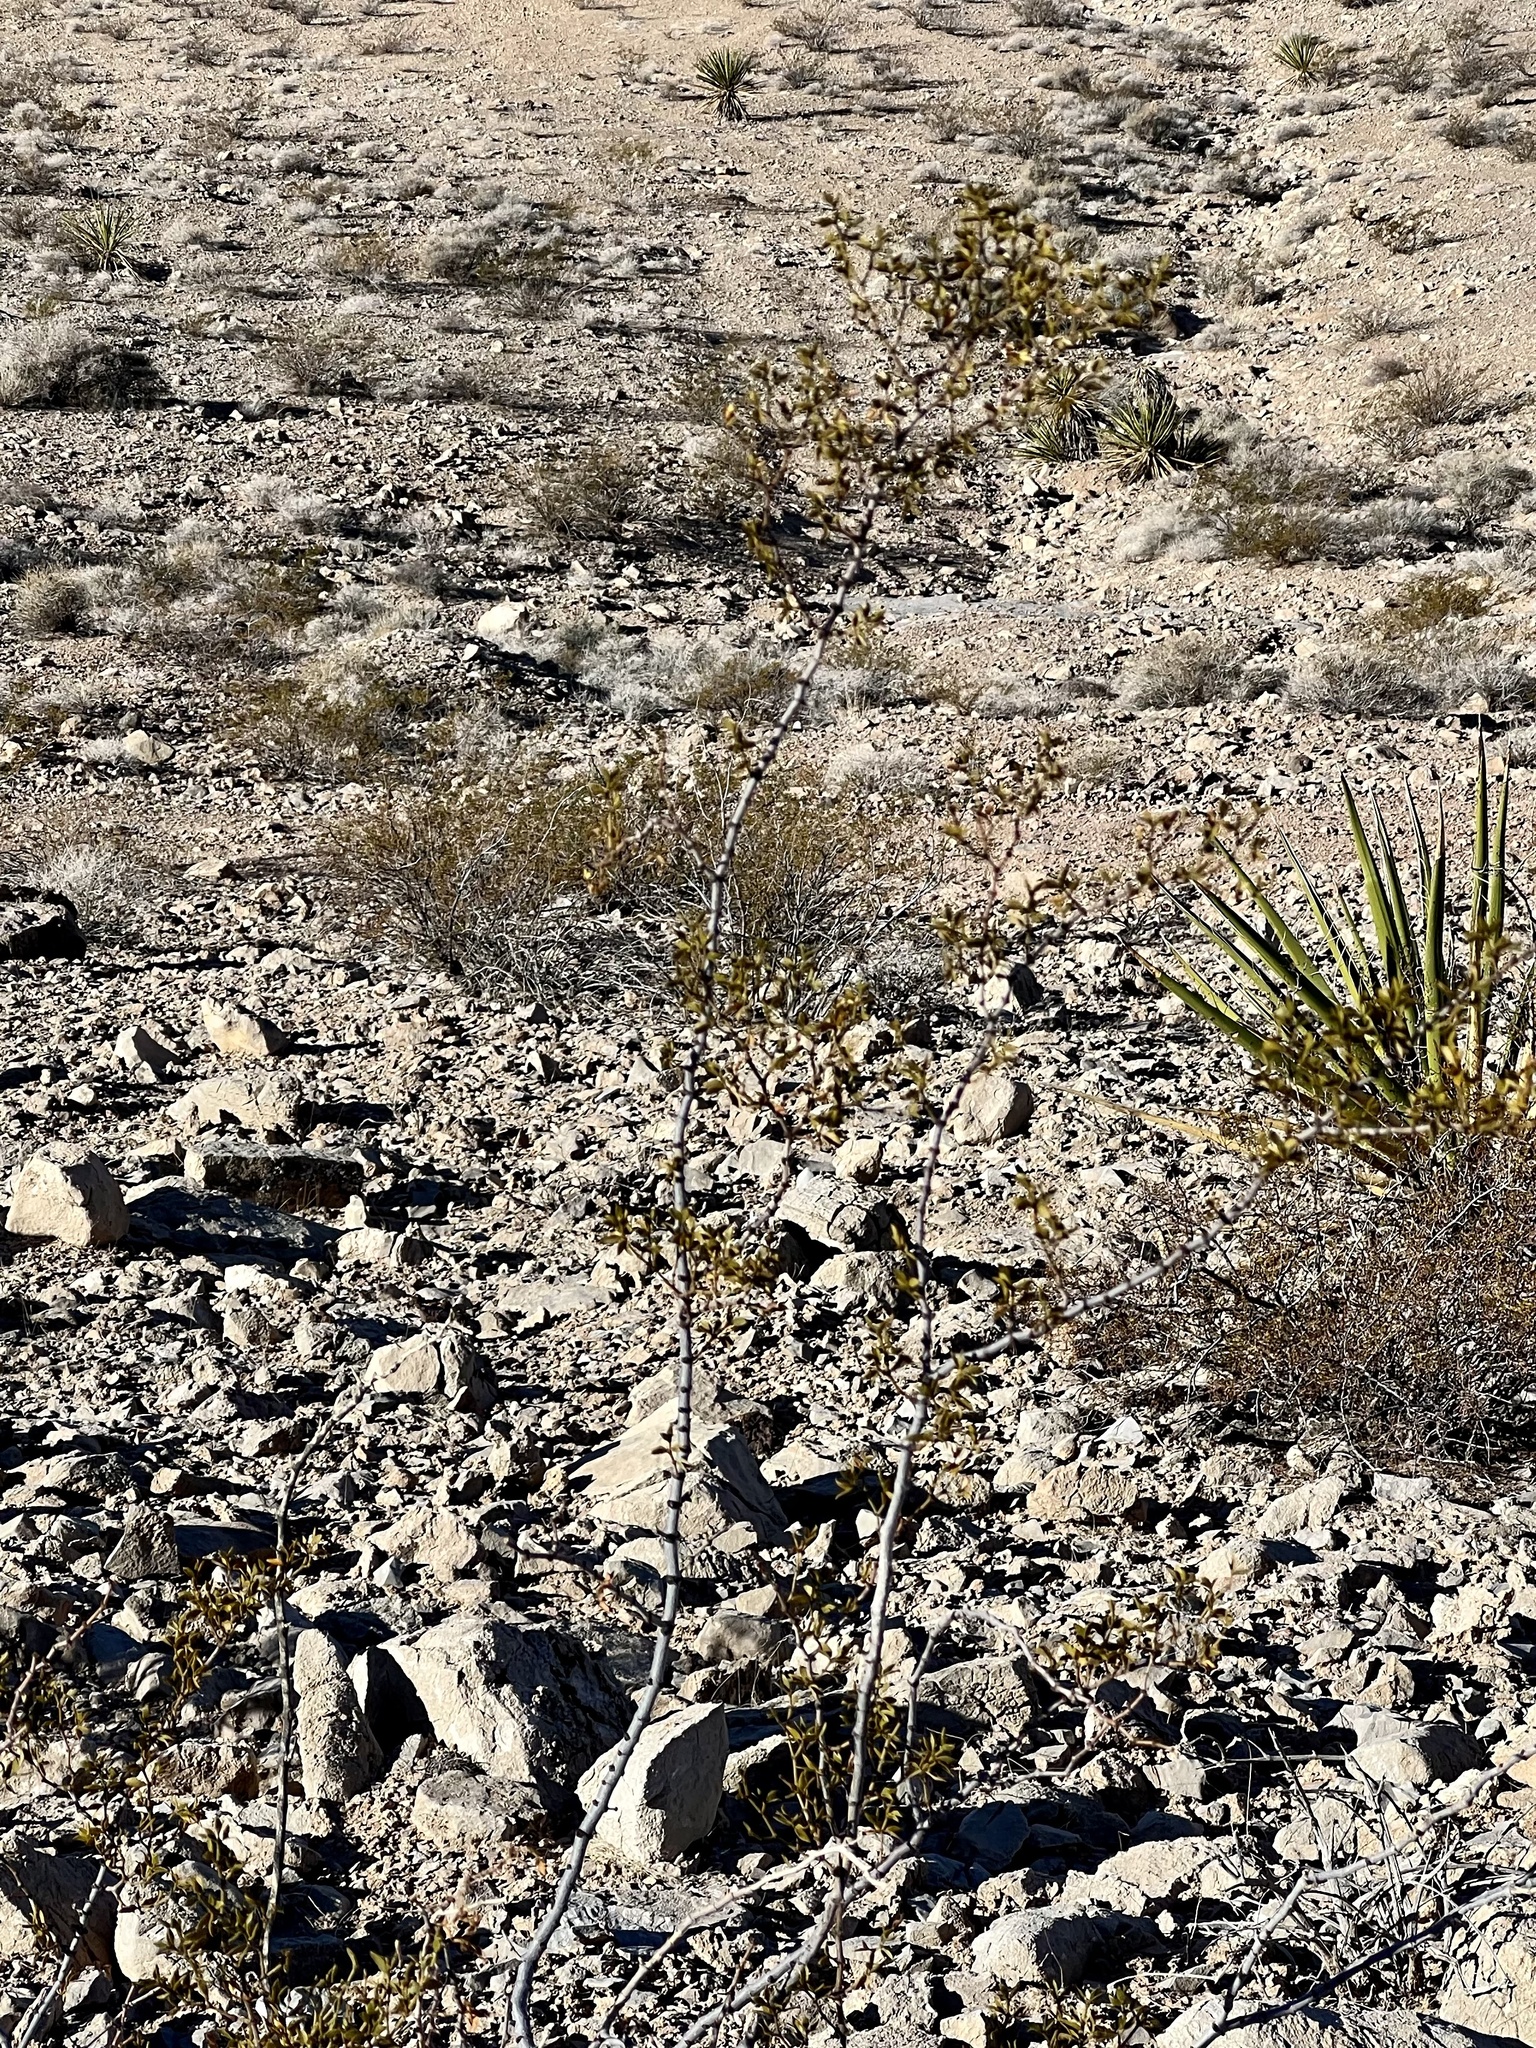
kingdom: Plantae
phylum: Tracheophyta
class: Magnoliopsida
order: Zygophyllales
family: Zygophyllaceae
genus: Larrea
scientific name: Larrea tridentata
